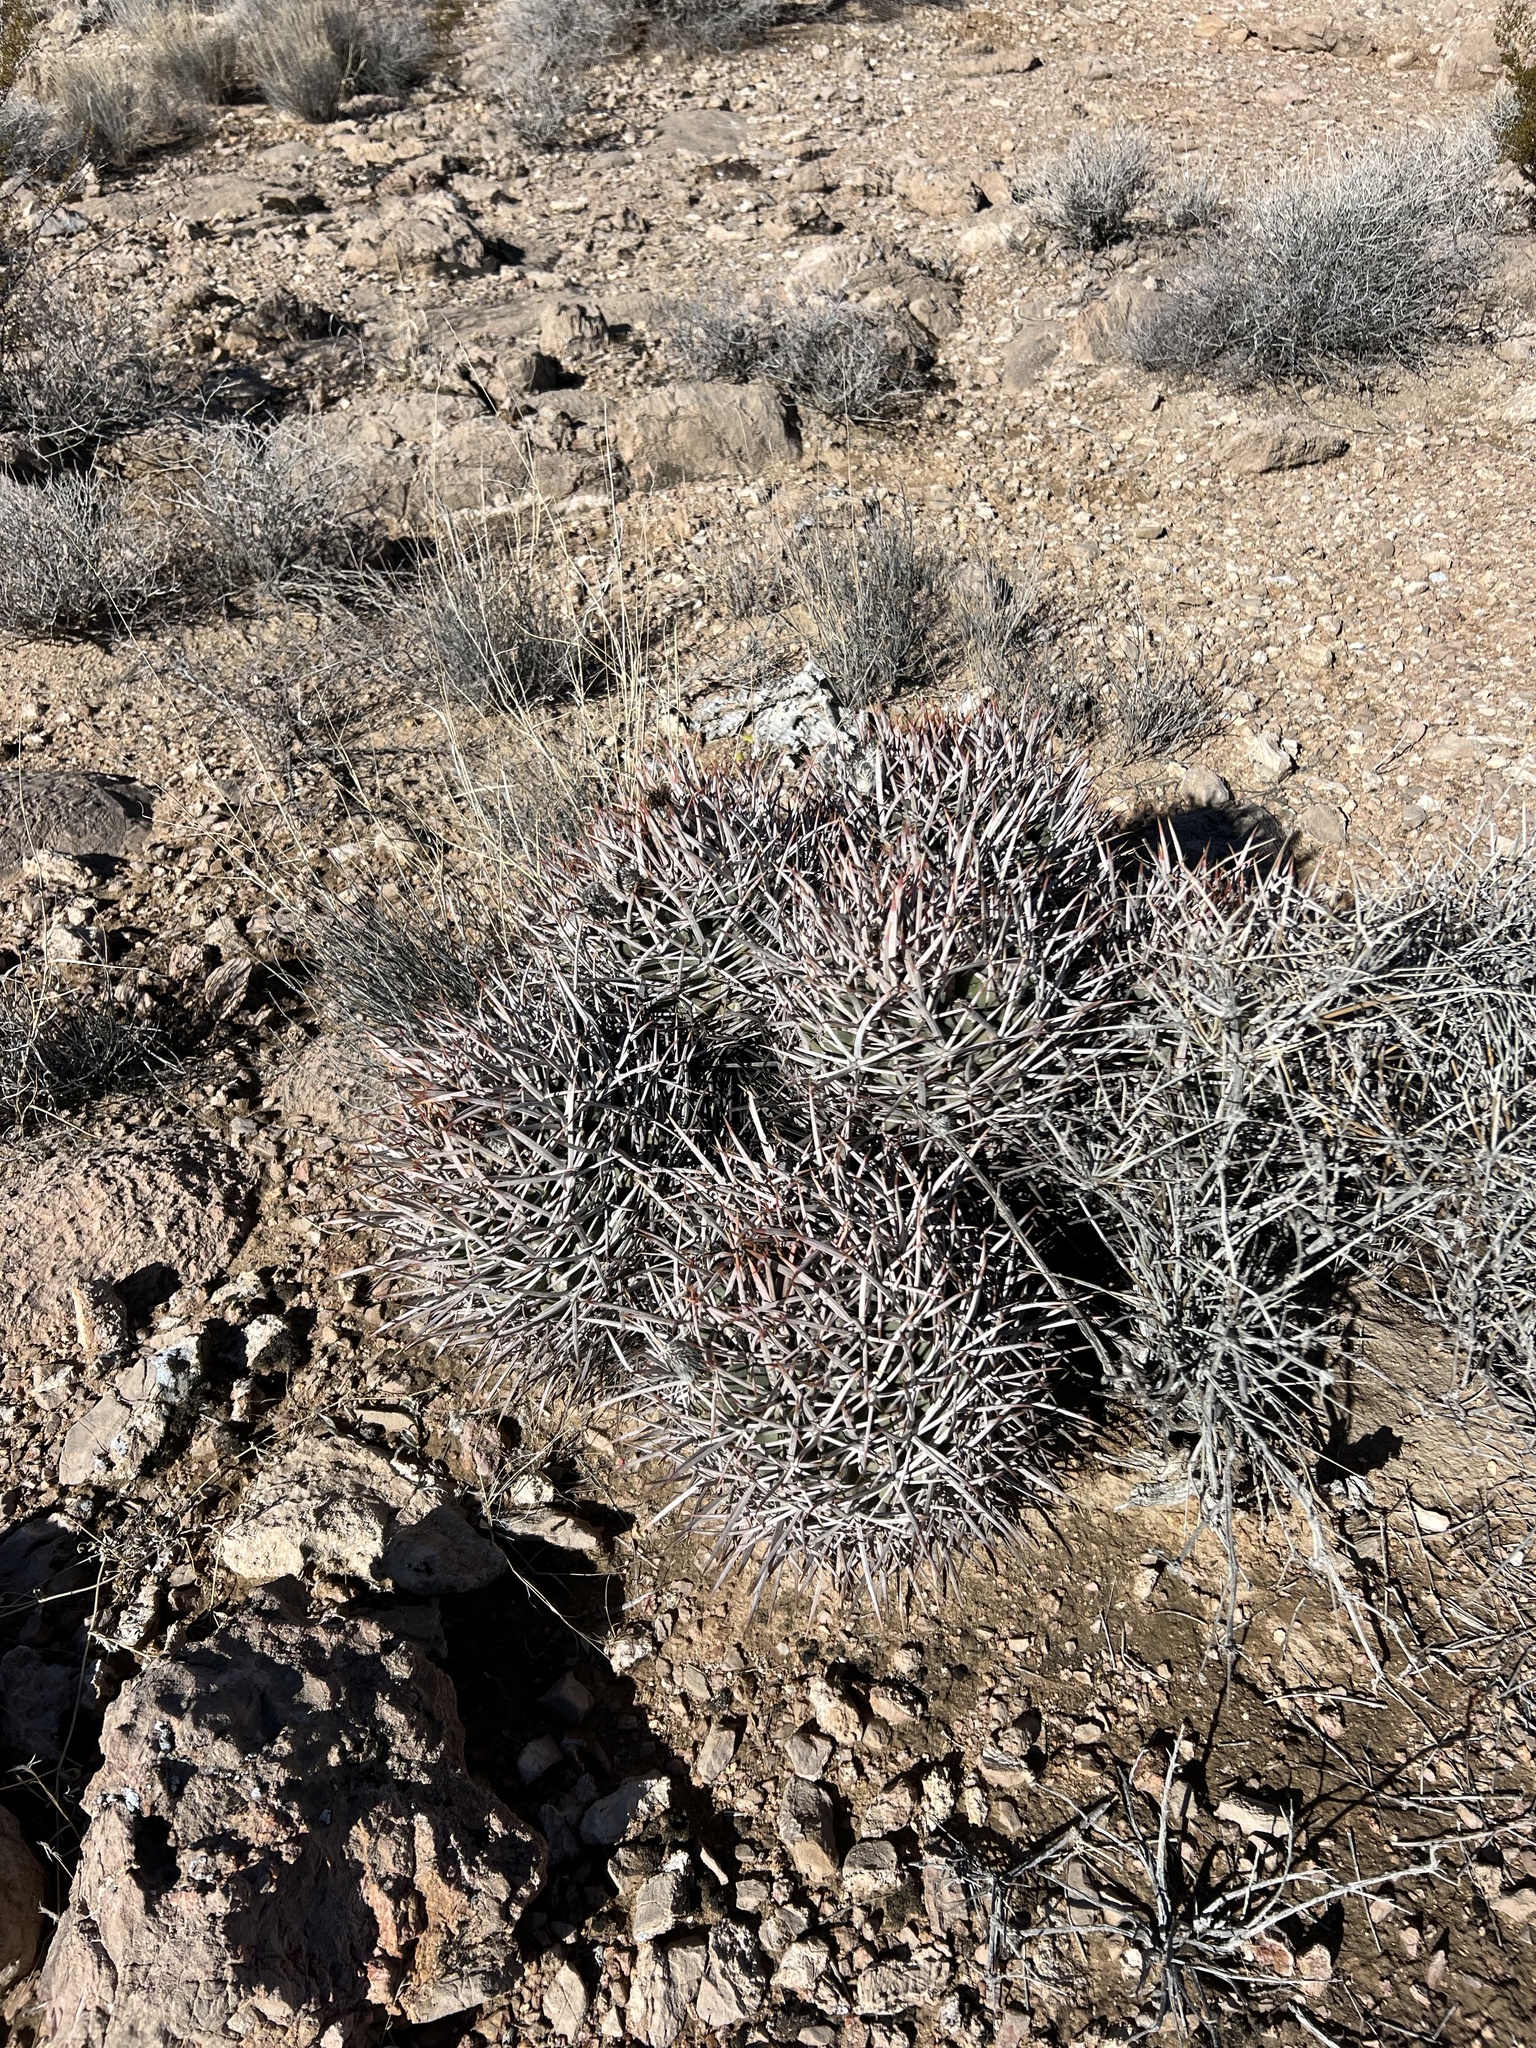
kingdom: Plantae
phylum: Tracheophyta
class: Magnoliopsida
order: Caryophyllales
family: Cactaceae
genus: Echinocactus
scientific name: Echinocactus polycephalus
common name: Cottontop cactus
